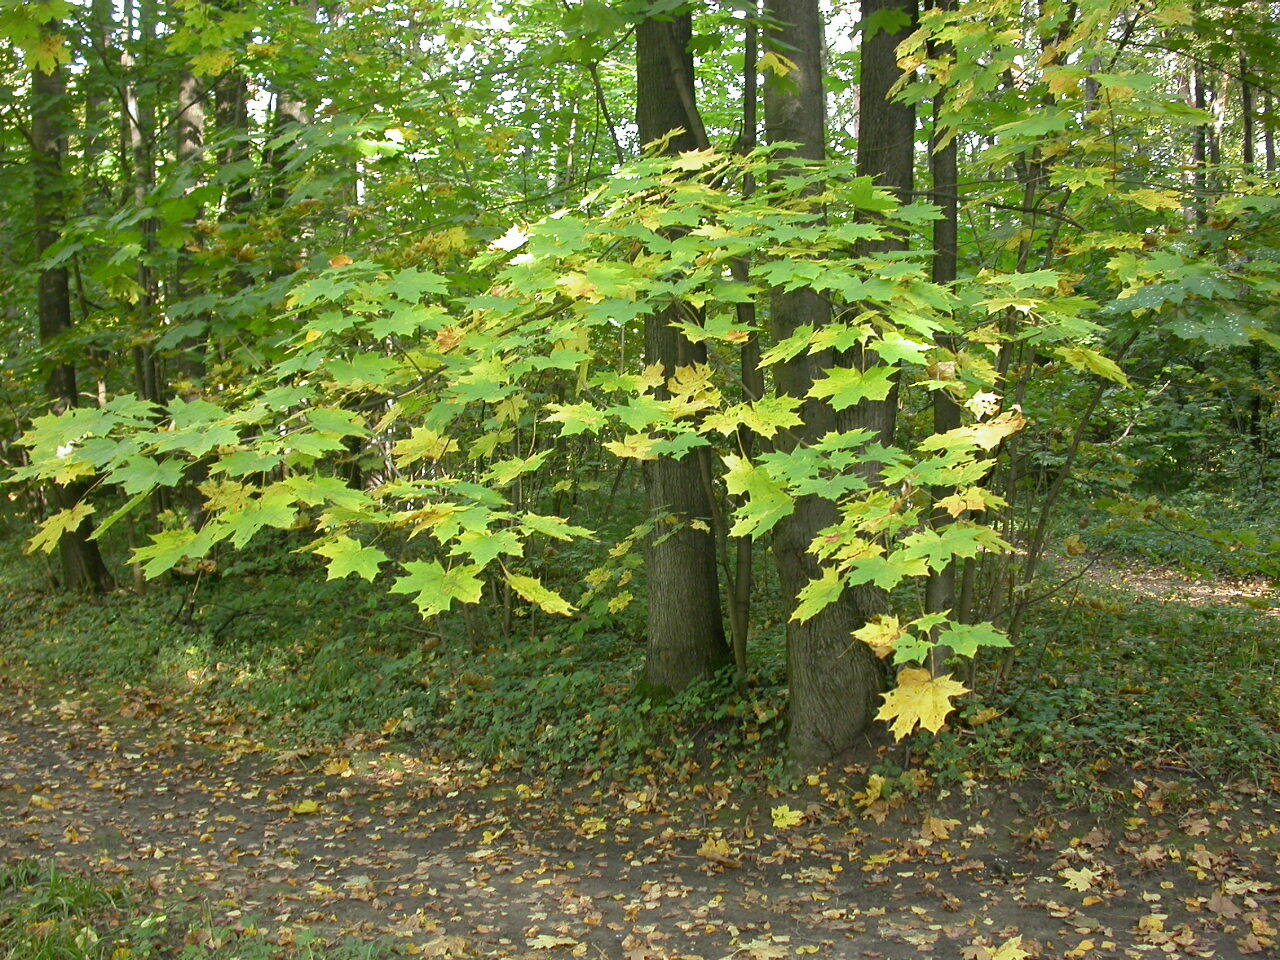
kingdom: Plantae
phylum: Tracheophyta
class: Magnoliopsida
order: Sapindales
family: Sapindaceae
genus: Acer
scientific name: Acer platanoides
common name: Norway maple
